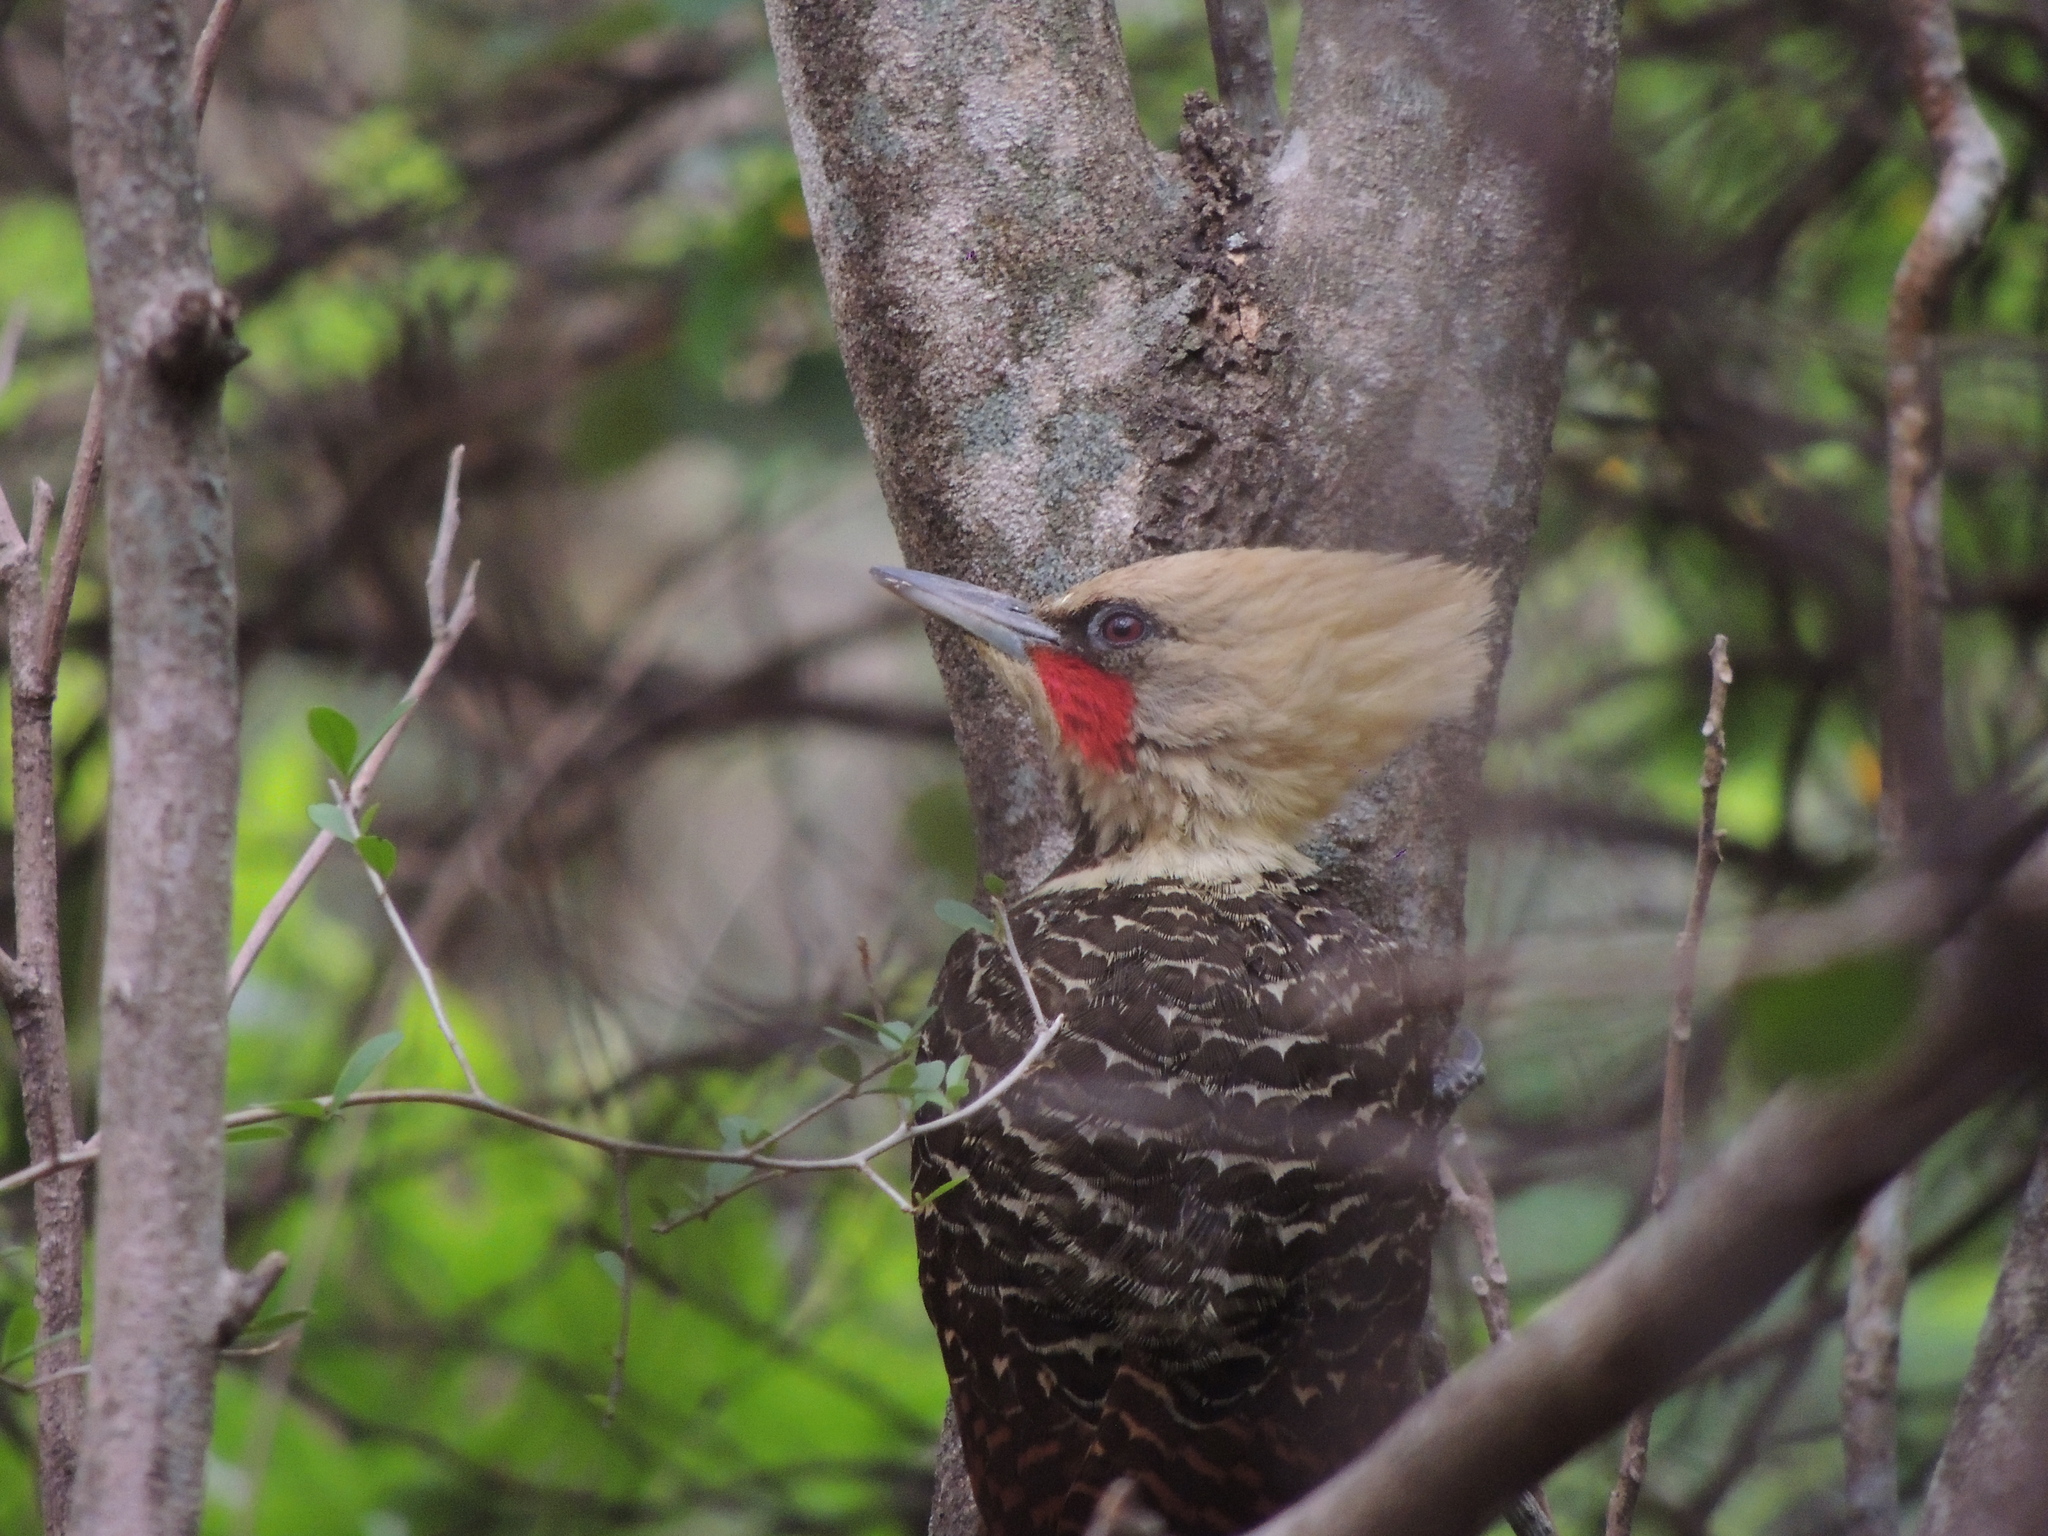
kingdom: Animalia
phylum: Chordata
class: Aves
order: Piciformes
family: Picidae
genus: Celeus
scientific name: Celeus lugubris
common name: Pale-crested woodpecker
